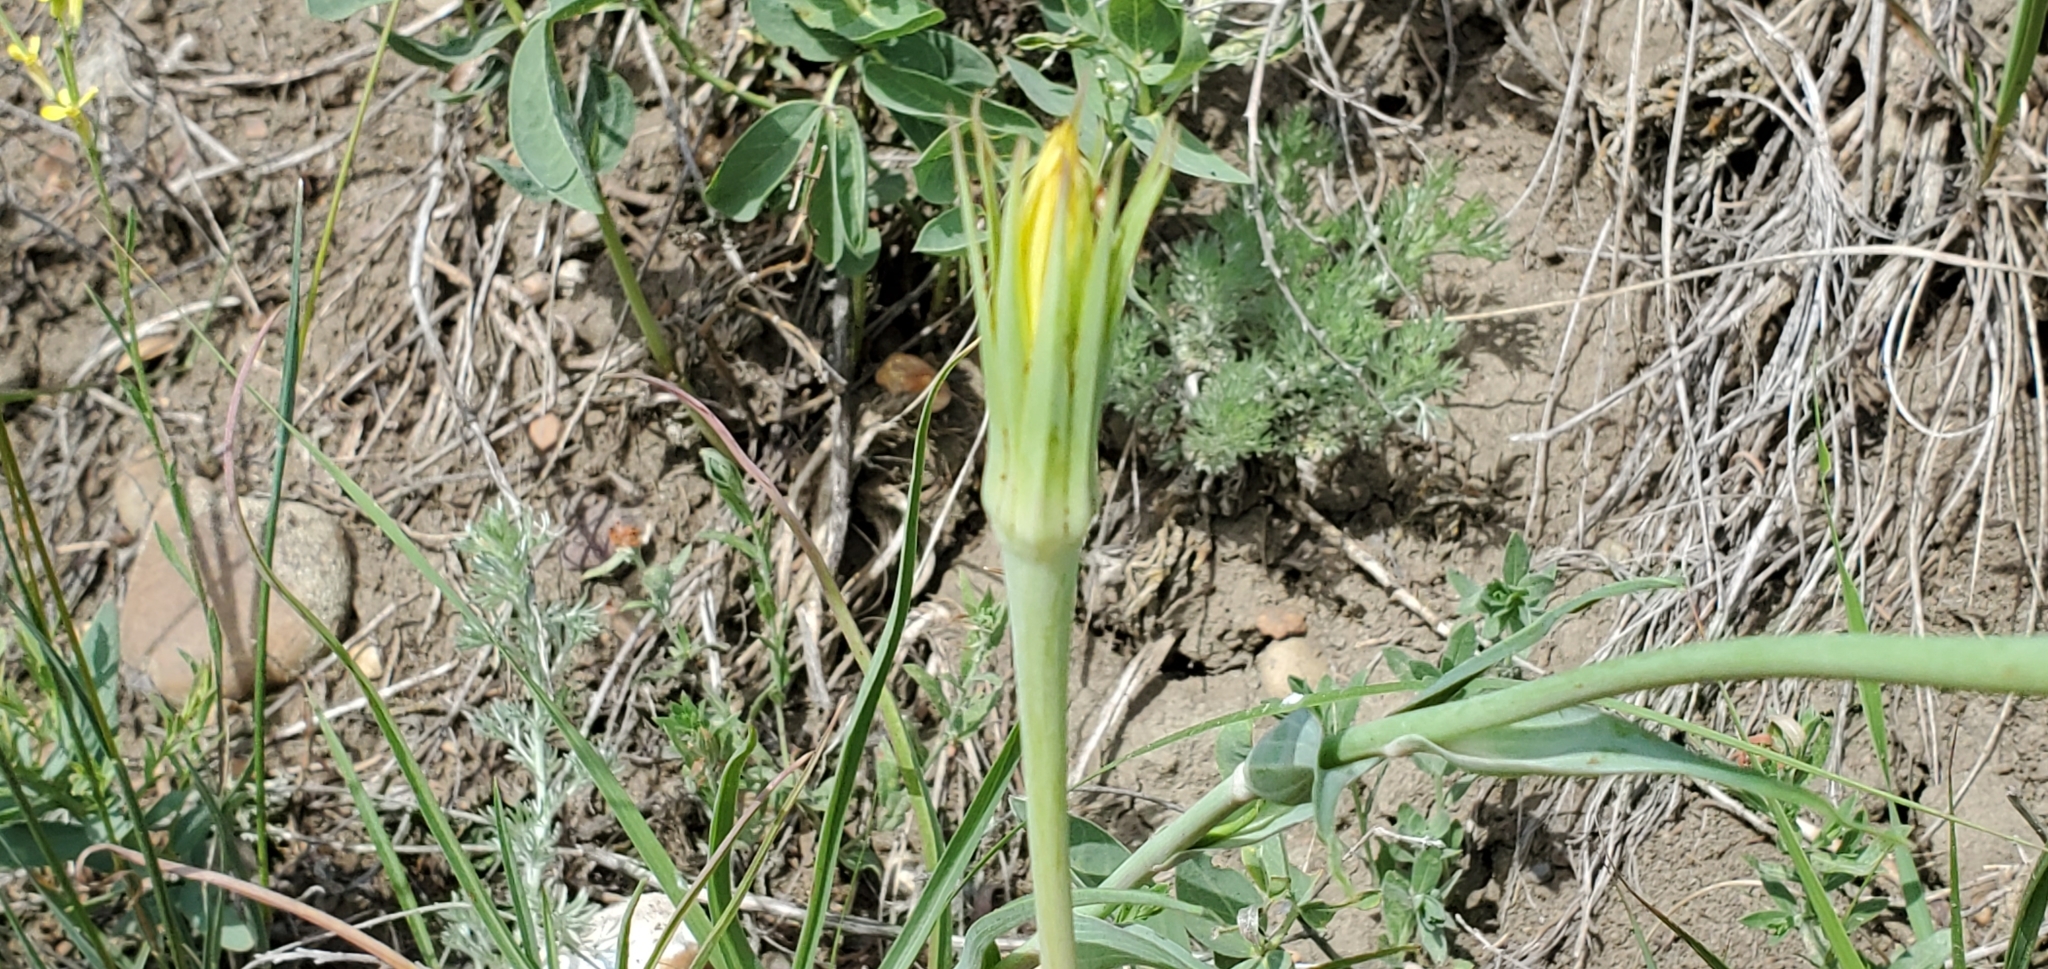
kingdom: Plantae
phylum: Tracheophyta
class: Magnoliopsida
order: Asterales
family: Asteraceae
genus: Tragopogon
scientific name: Tragopogon dubius
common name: Yellow salsify
